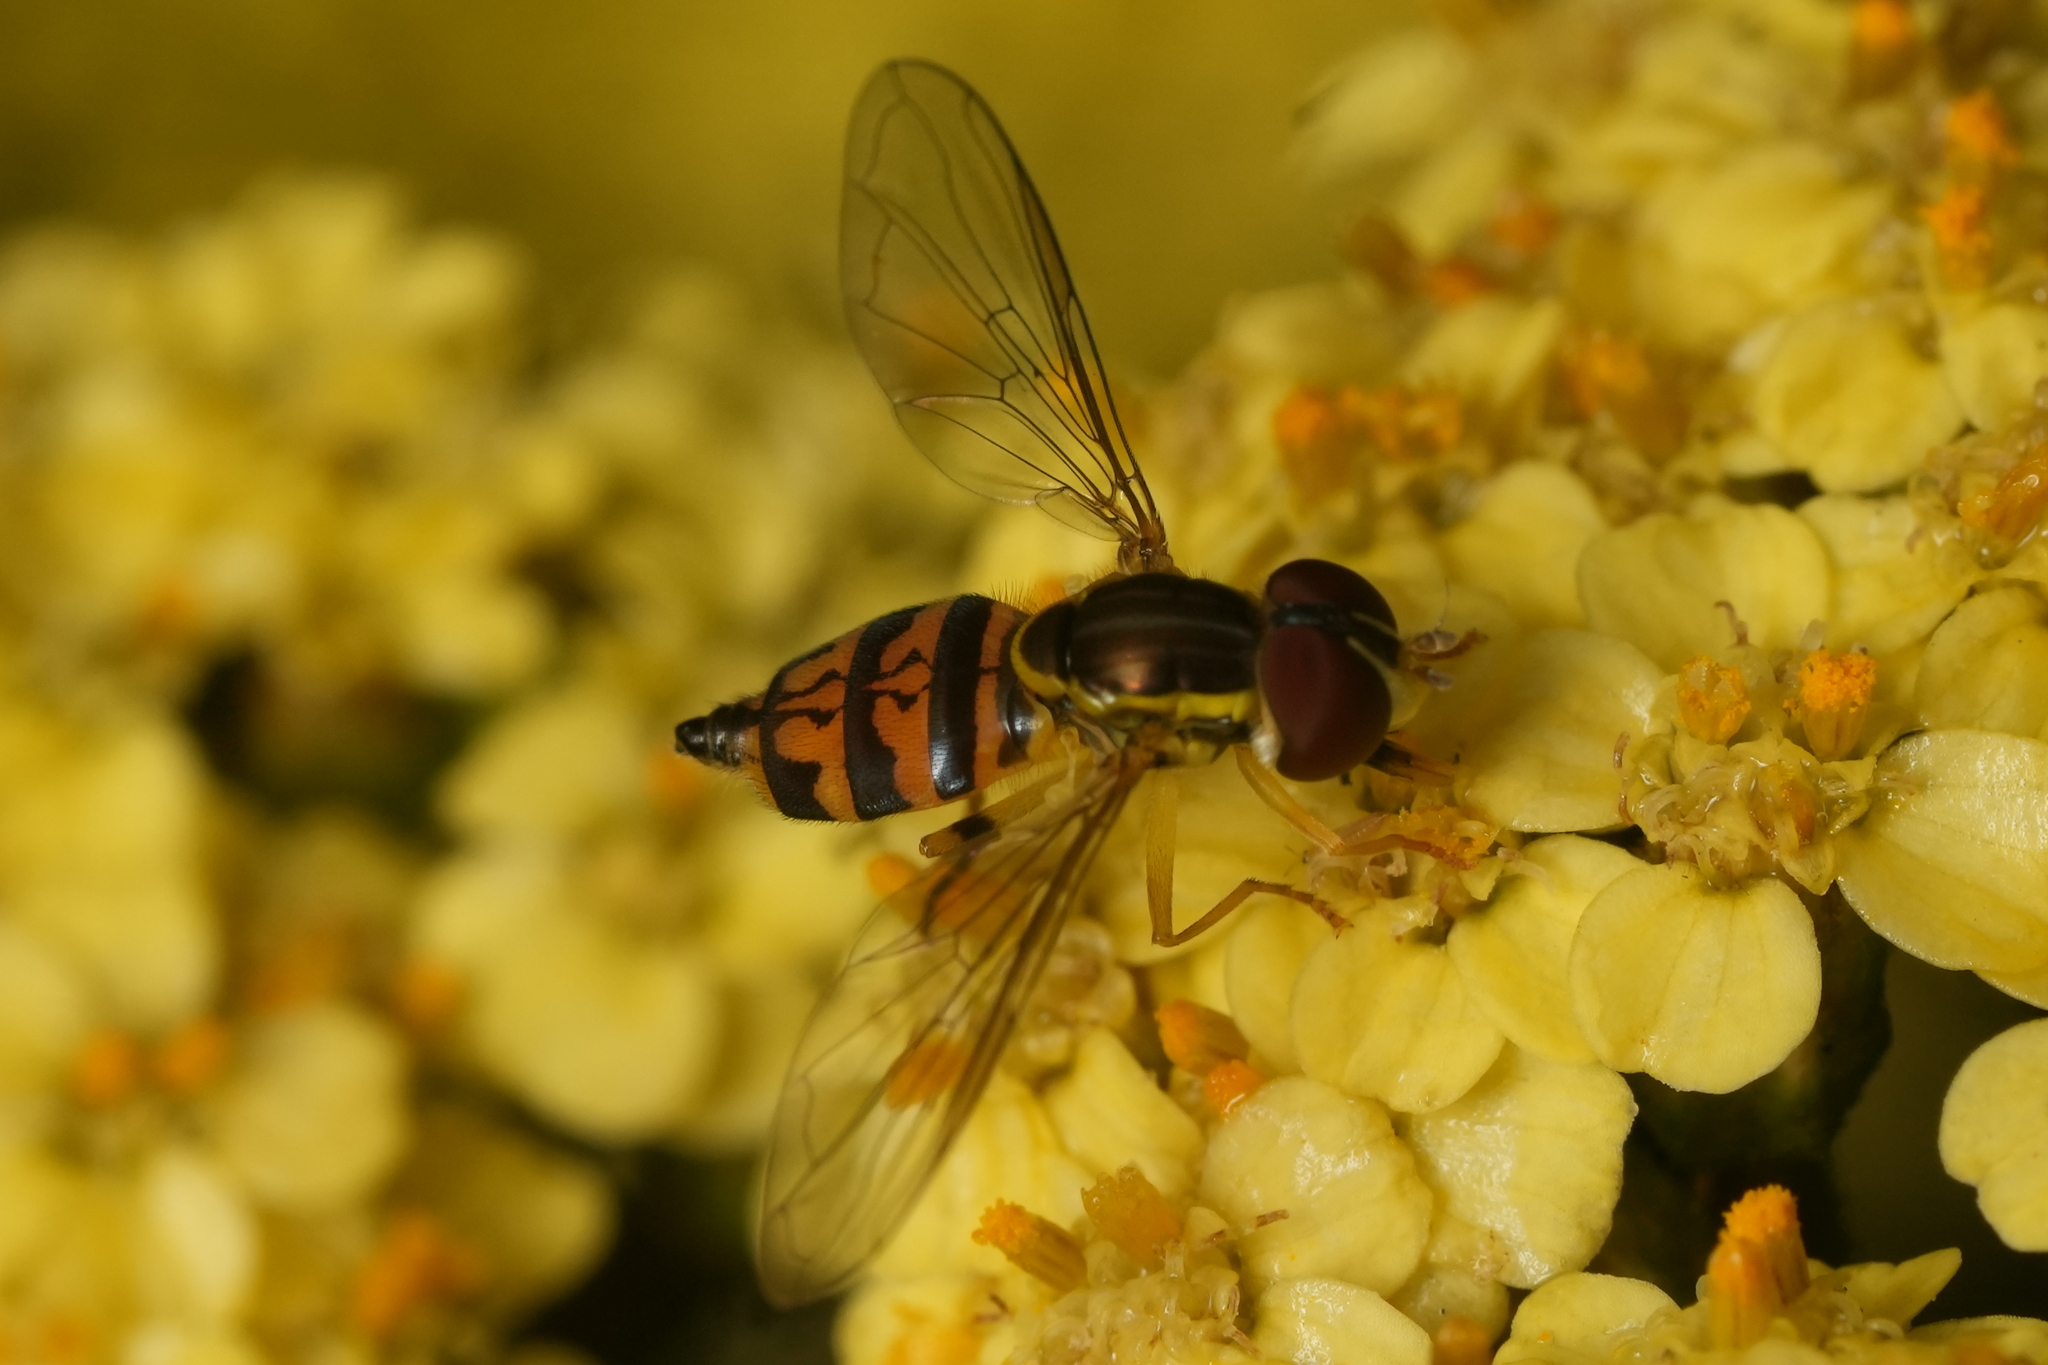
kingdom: Animalia
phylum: Arthropoda
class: Insecta
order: Diptera
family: Syrphidae
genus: Toxomerus
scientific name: Toxomerus geminatus
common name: Eastern calligrapher
